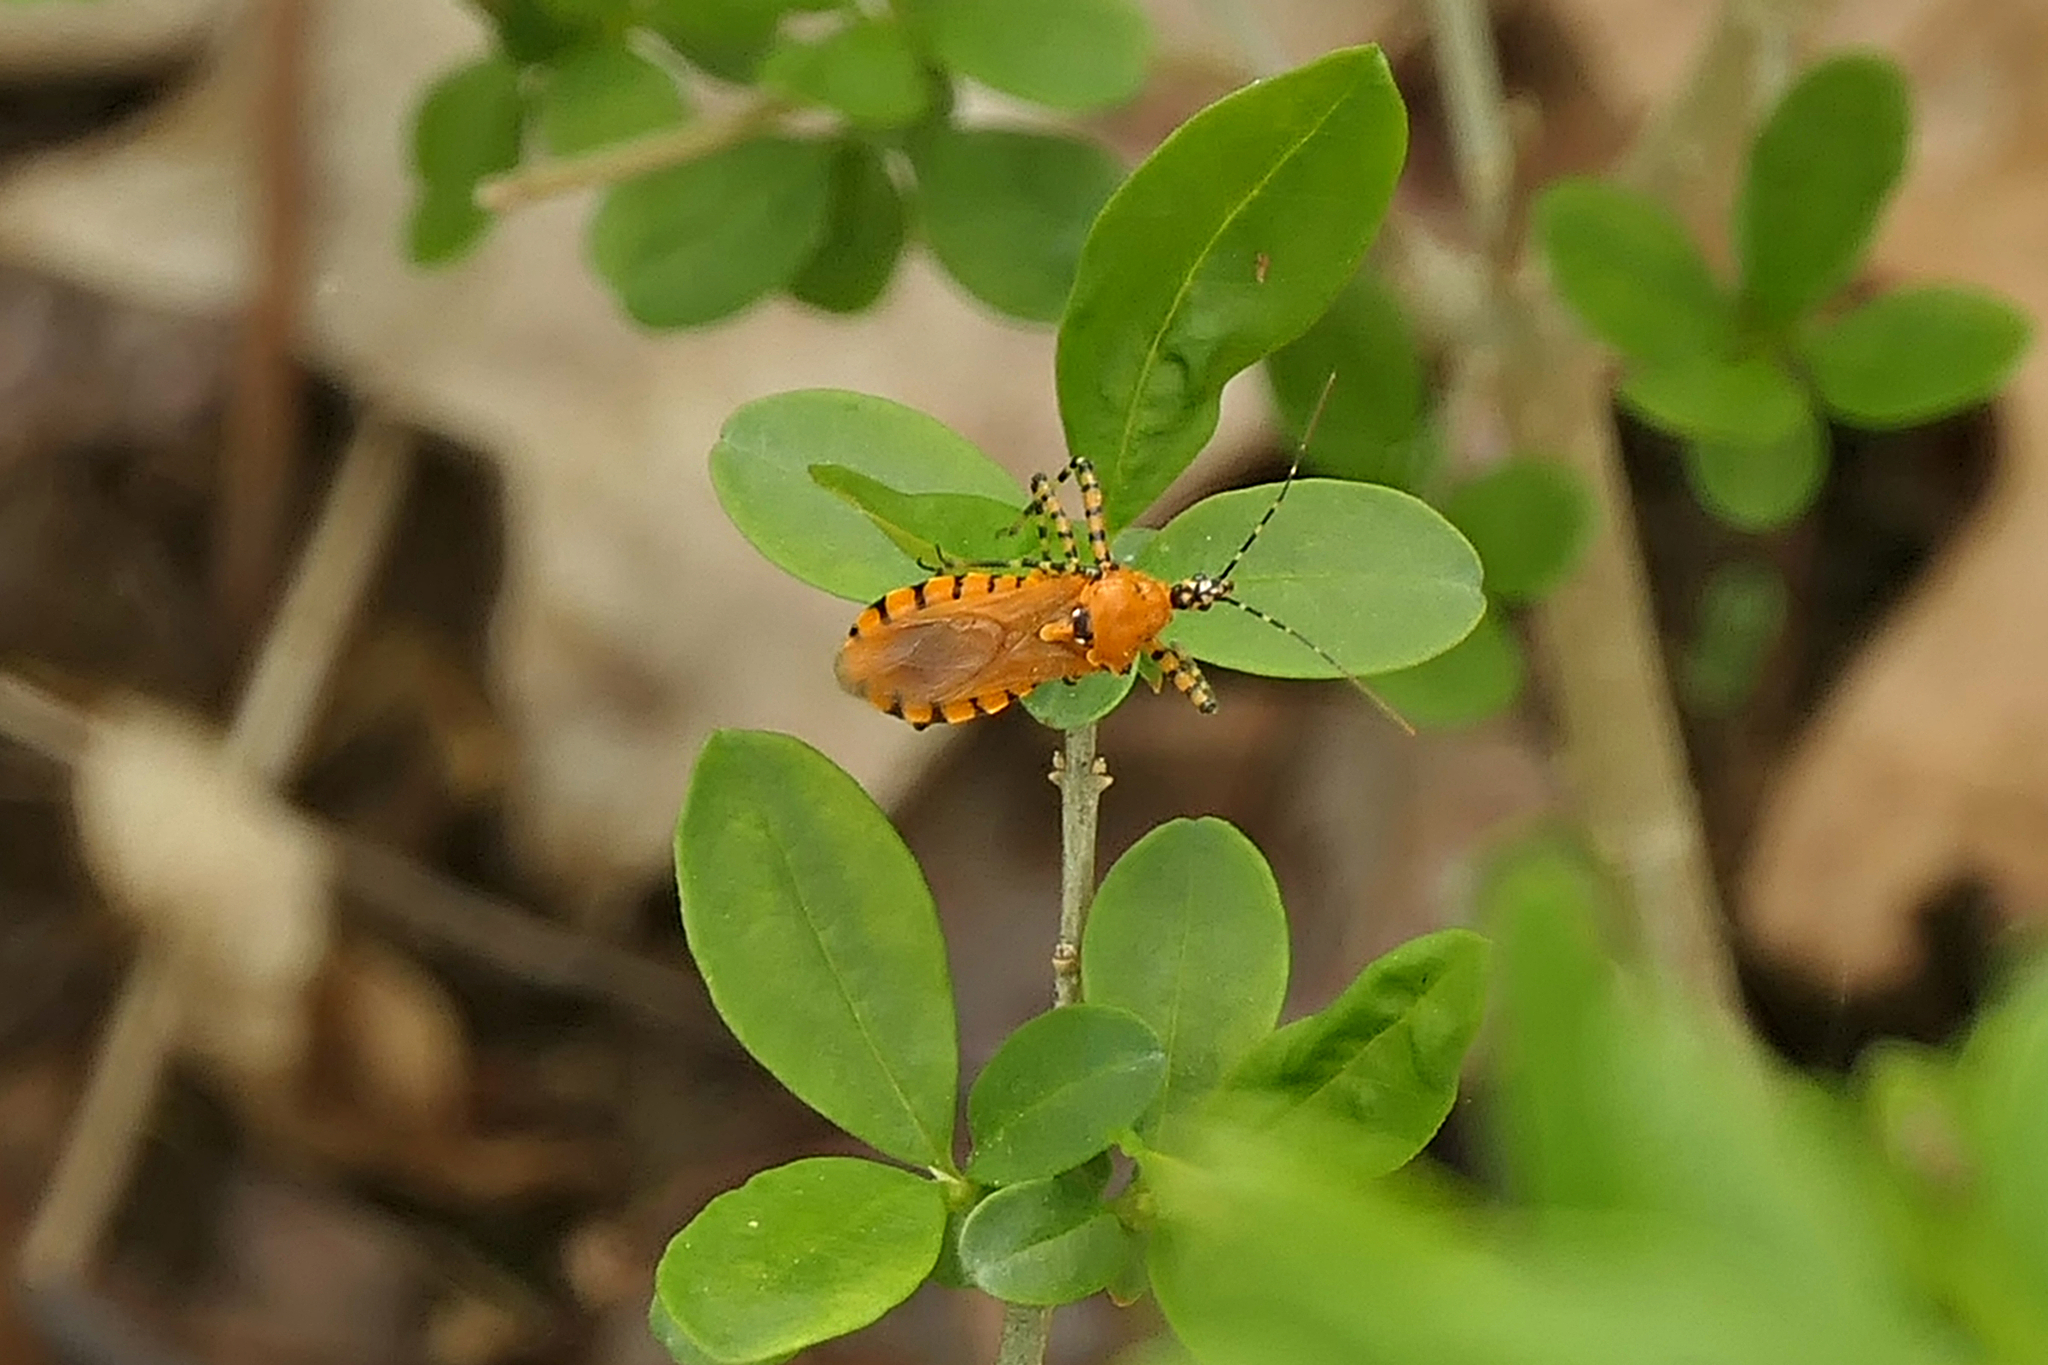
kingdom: Animalia
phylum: Arthropoda
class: Insecta
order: Hemiptera
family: Reduviidae
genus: Pselliopus
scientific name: Pselliopus barberi
